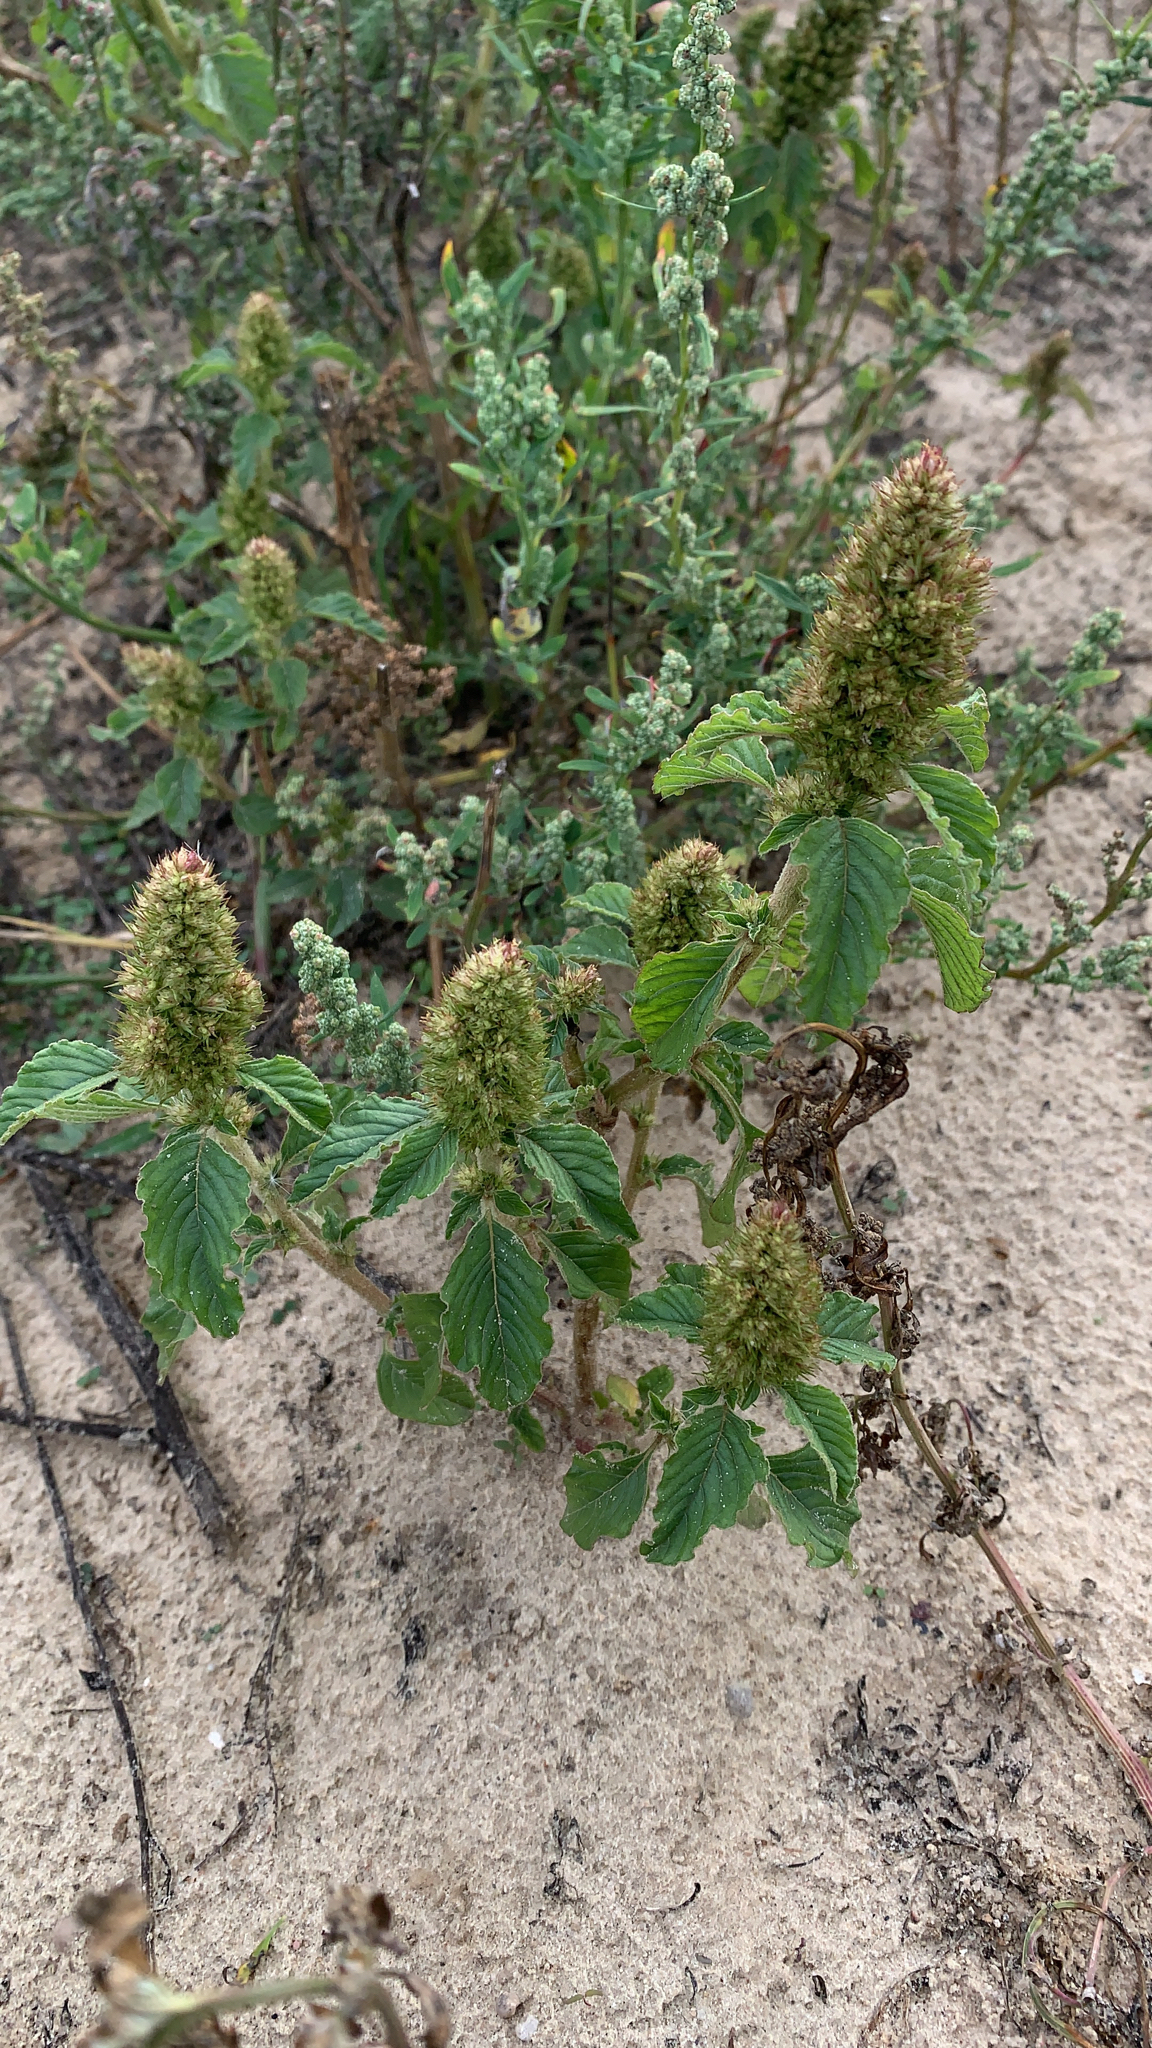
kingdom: Plantae
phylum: Tracheophyta
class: Magnoliopsida
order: Caryophyllales
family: Amaranthaceae
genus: Amaranthus
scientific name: Amaranthus retroflexus
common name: Redroot amaranth
